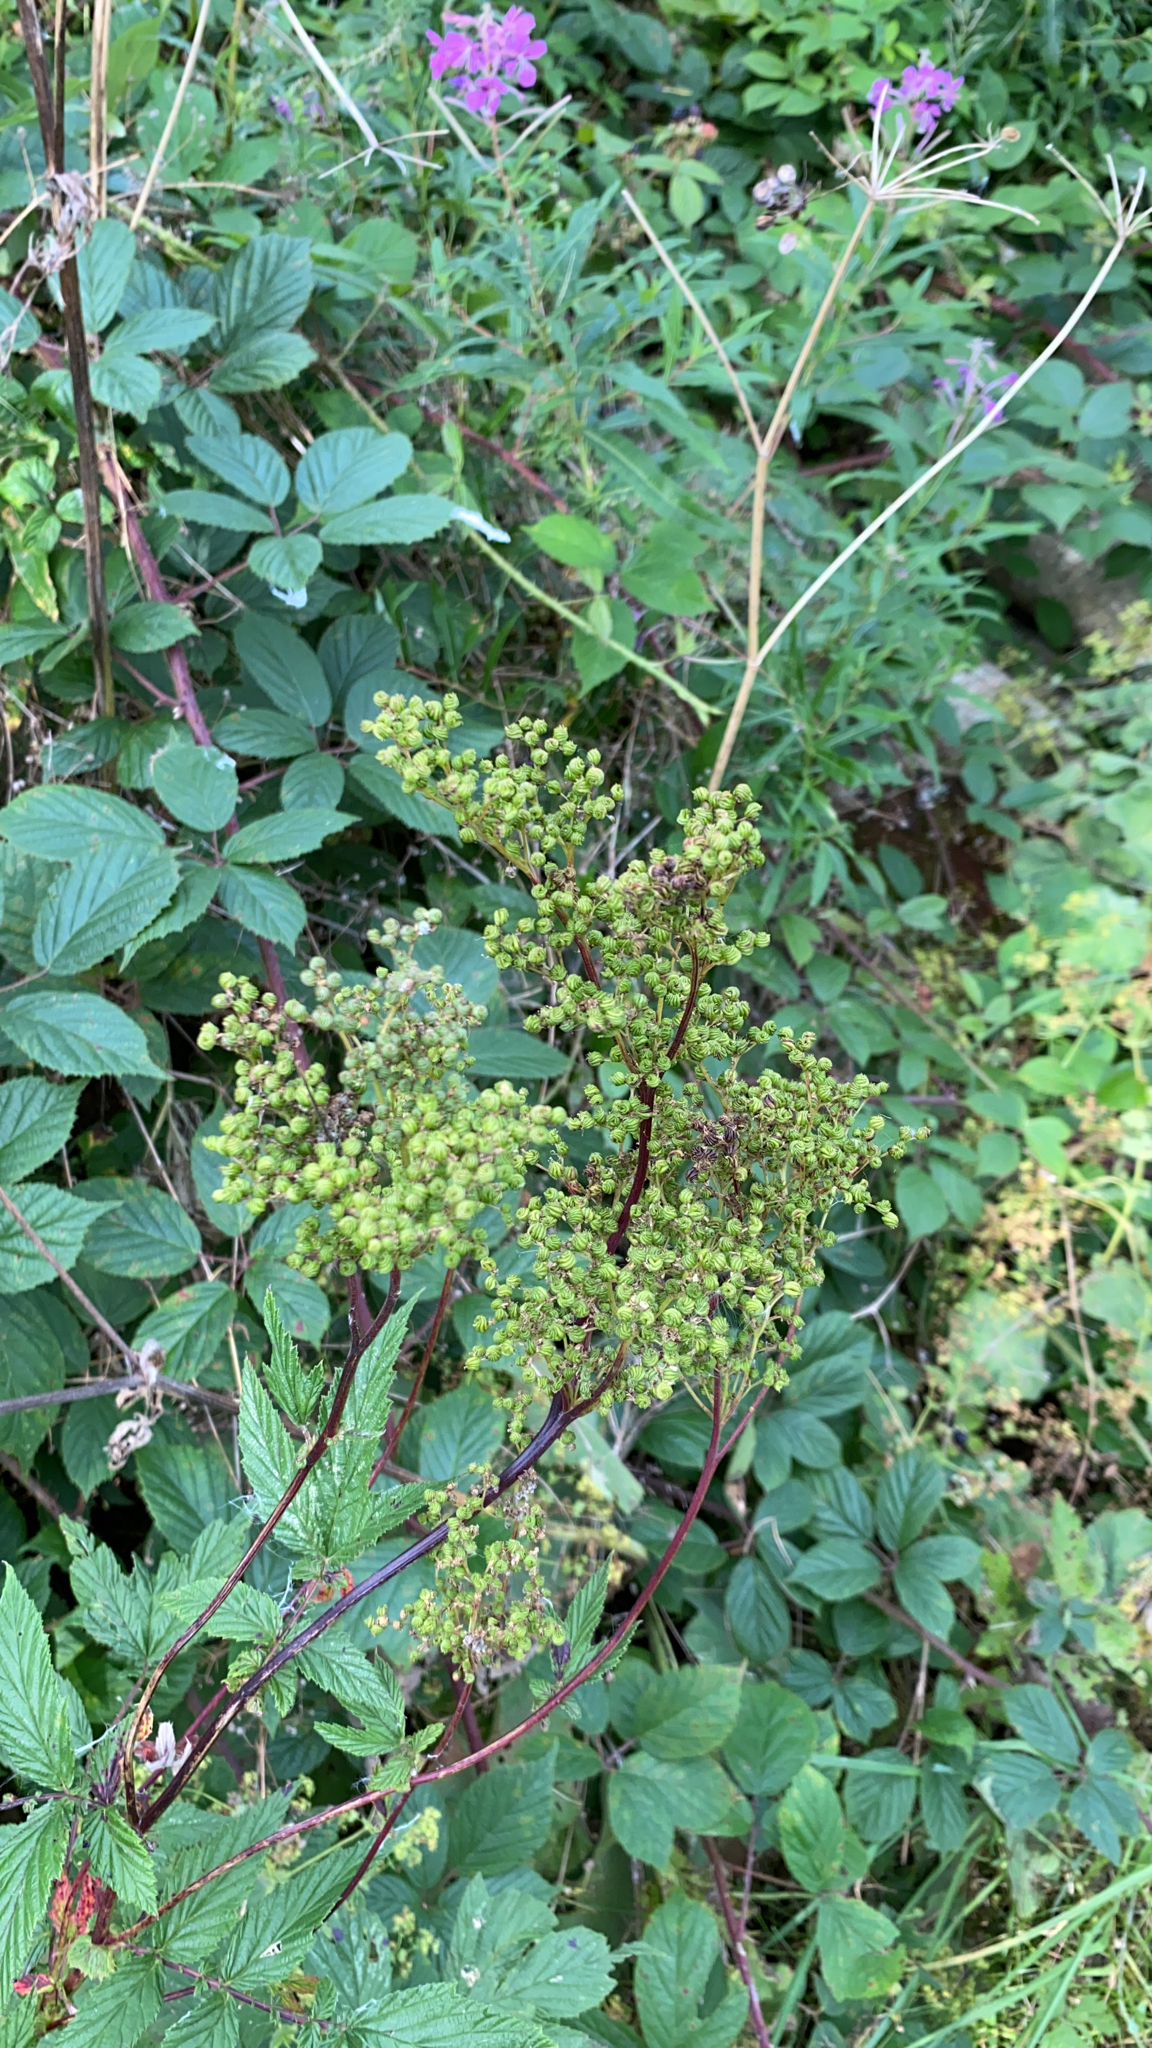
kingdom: Plantae
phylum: Tracheophyta
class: Magnoliopsida
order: Rosales
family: Rosaceae
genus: Filipendula
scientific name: Filipendula ulmaria
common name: Meadowsweet
